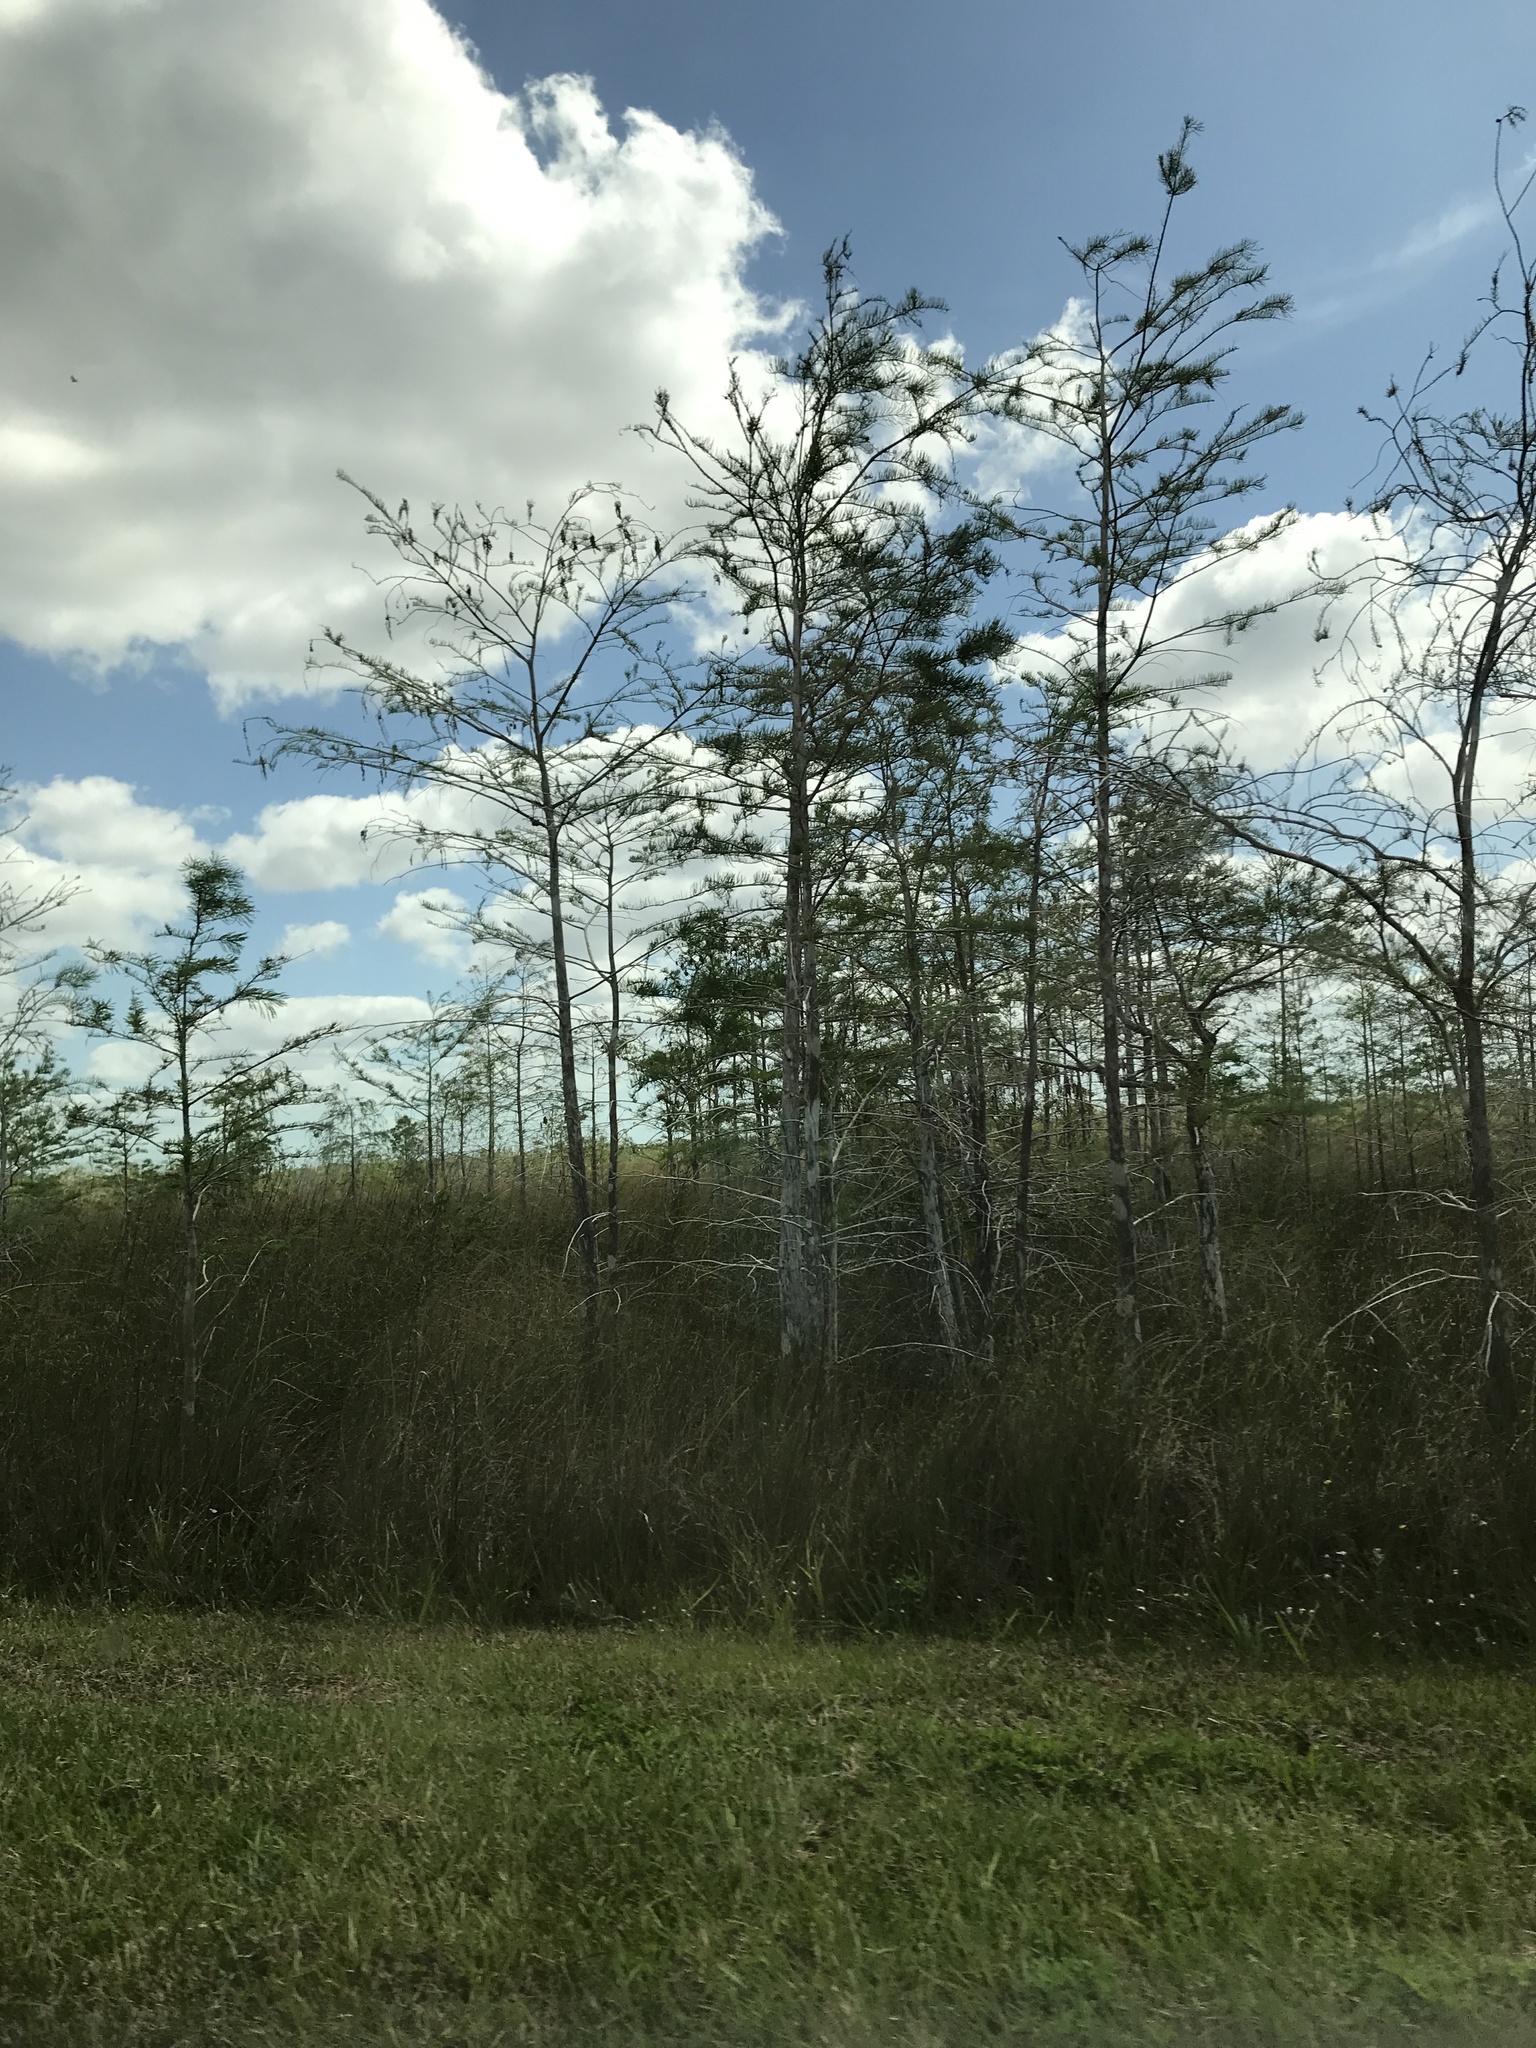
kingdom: Plantae
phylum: Tracheophyta
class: Pinopsida
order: Pinales
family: Cupressaceae
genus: Taxodium
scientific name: Taxodium distichum
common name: Bald cypress
